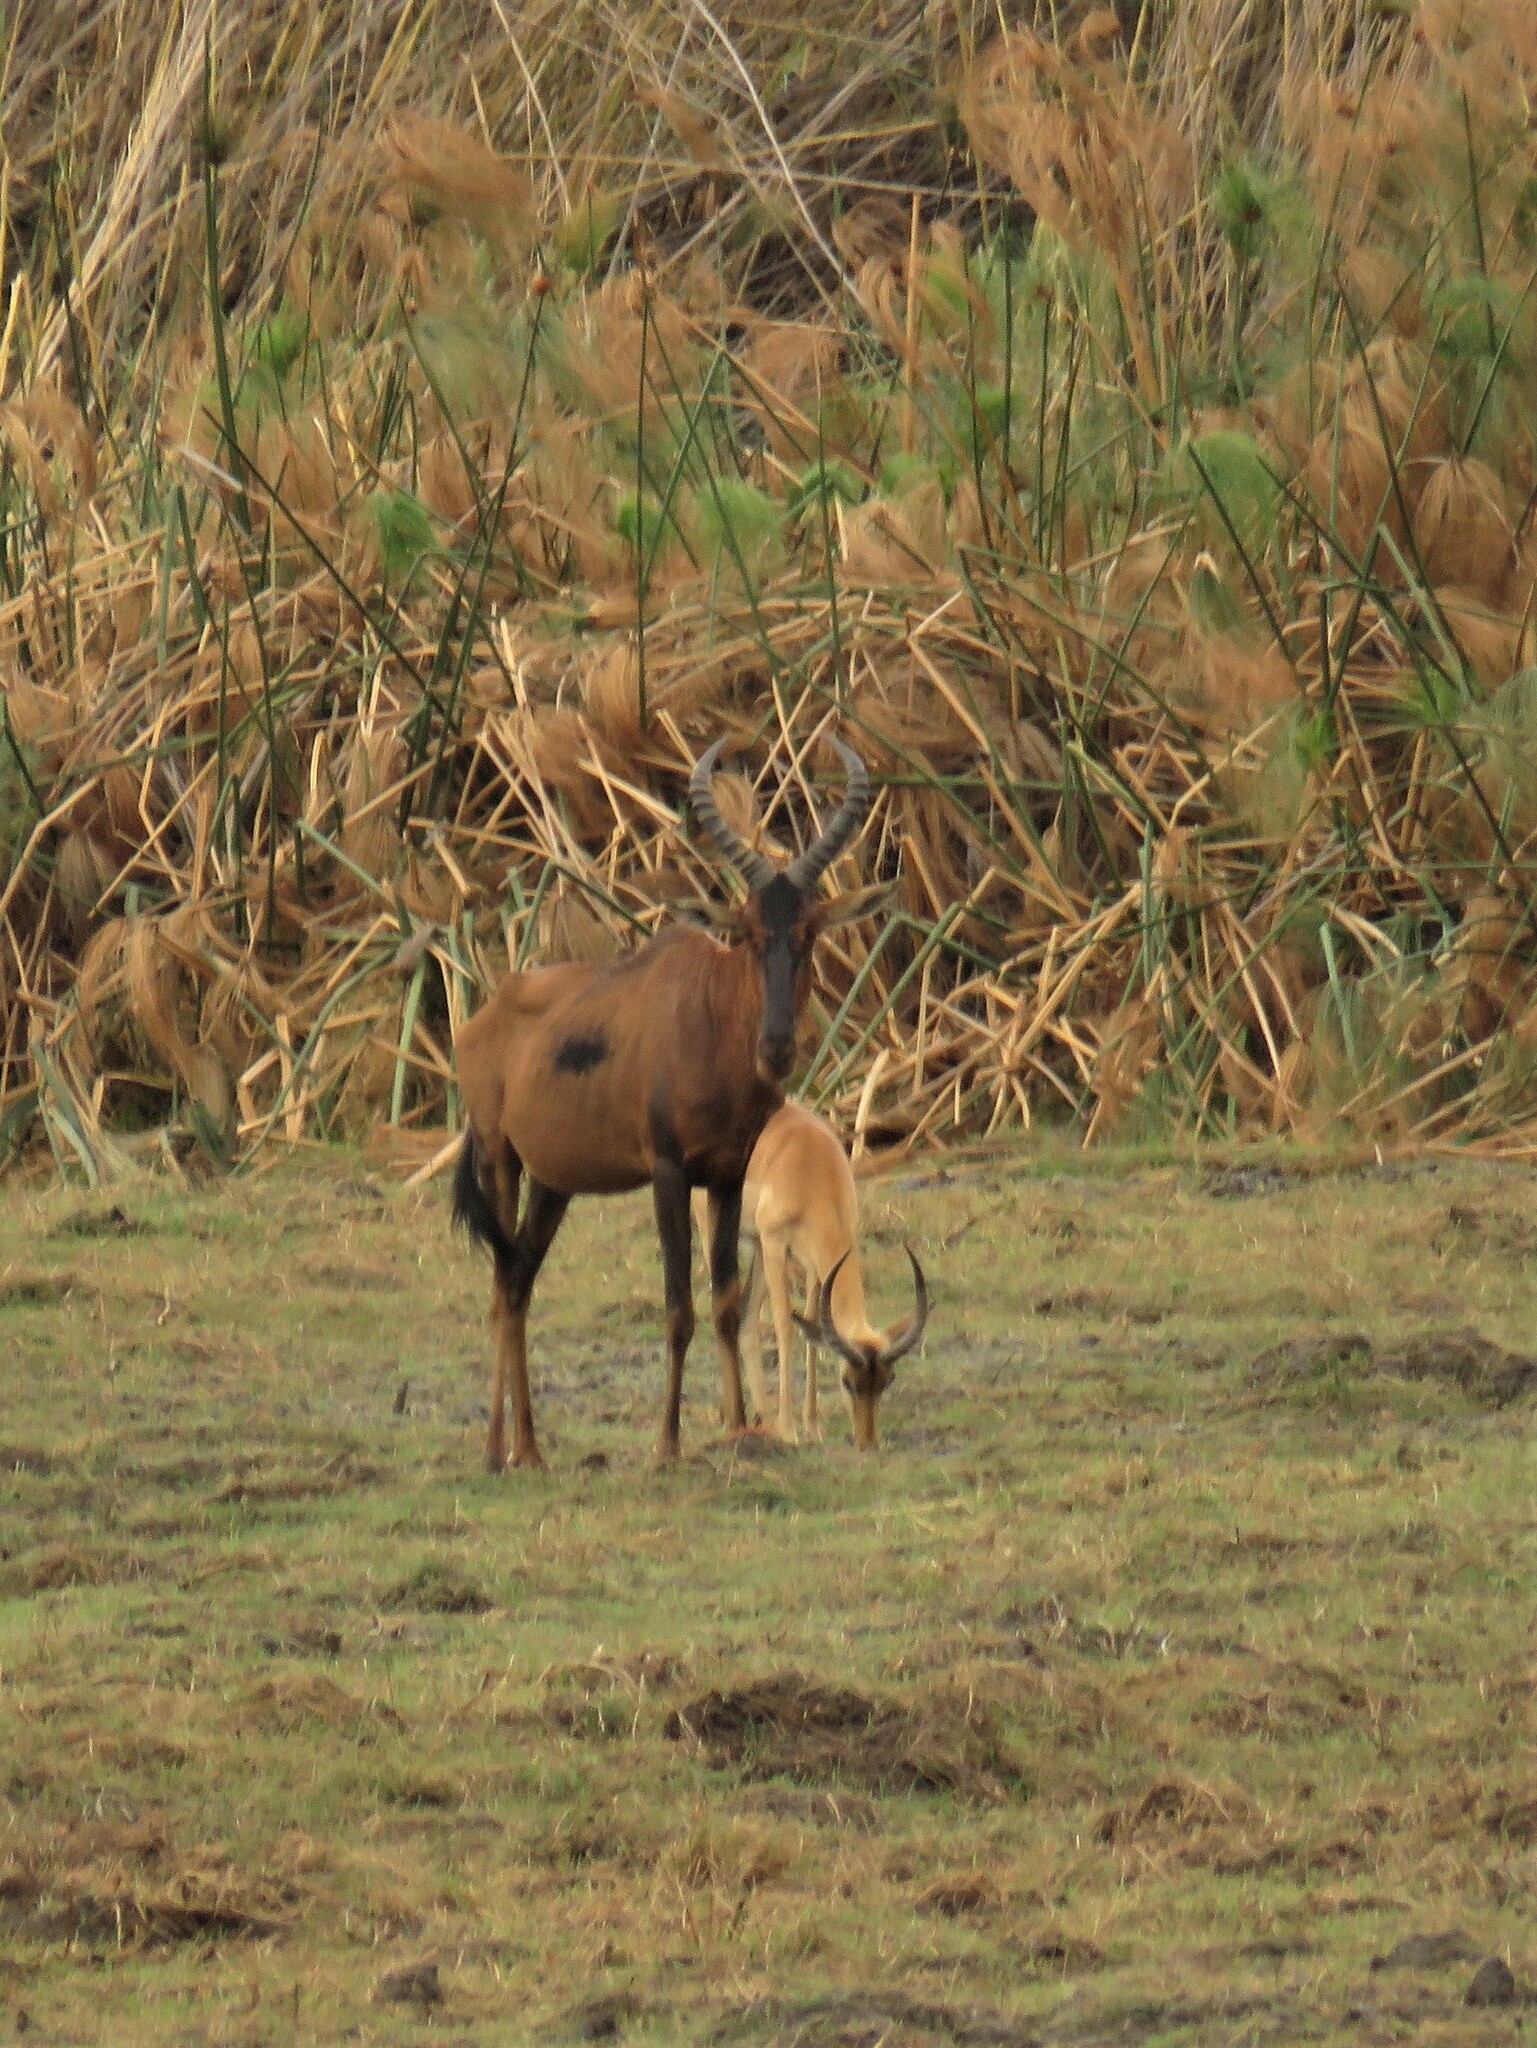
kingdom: Animalia
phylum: Chordata
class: Mammalia
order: Artiodactyla
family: Bovidae
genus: Damaliscus
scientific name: Damaliscus lunatus
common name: Common tsessebe
